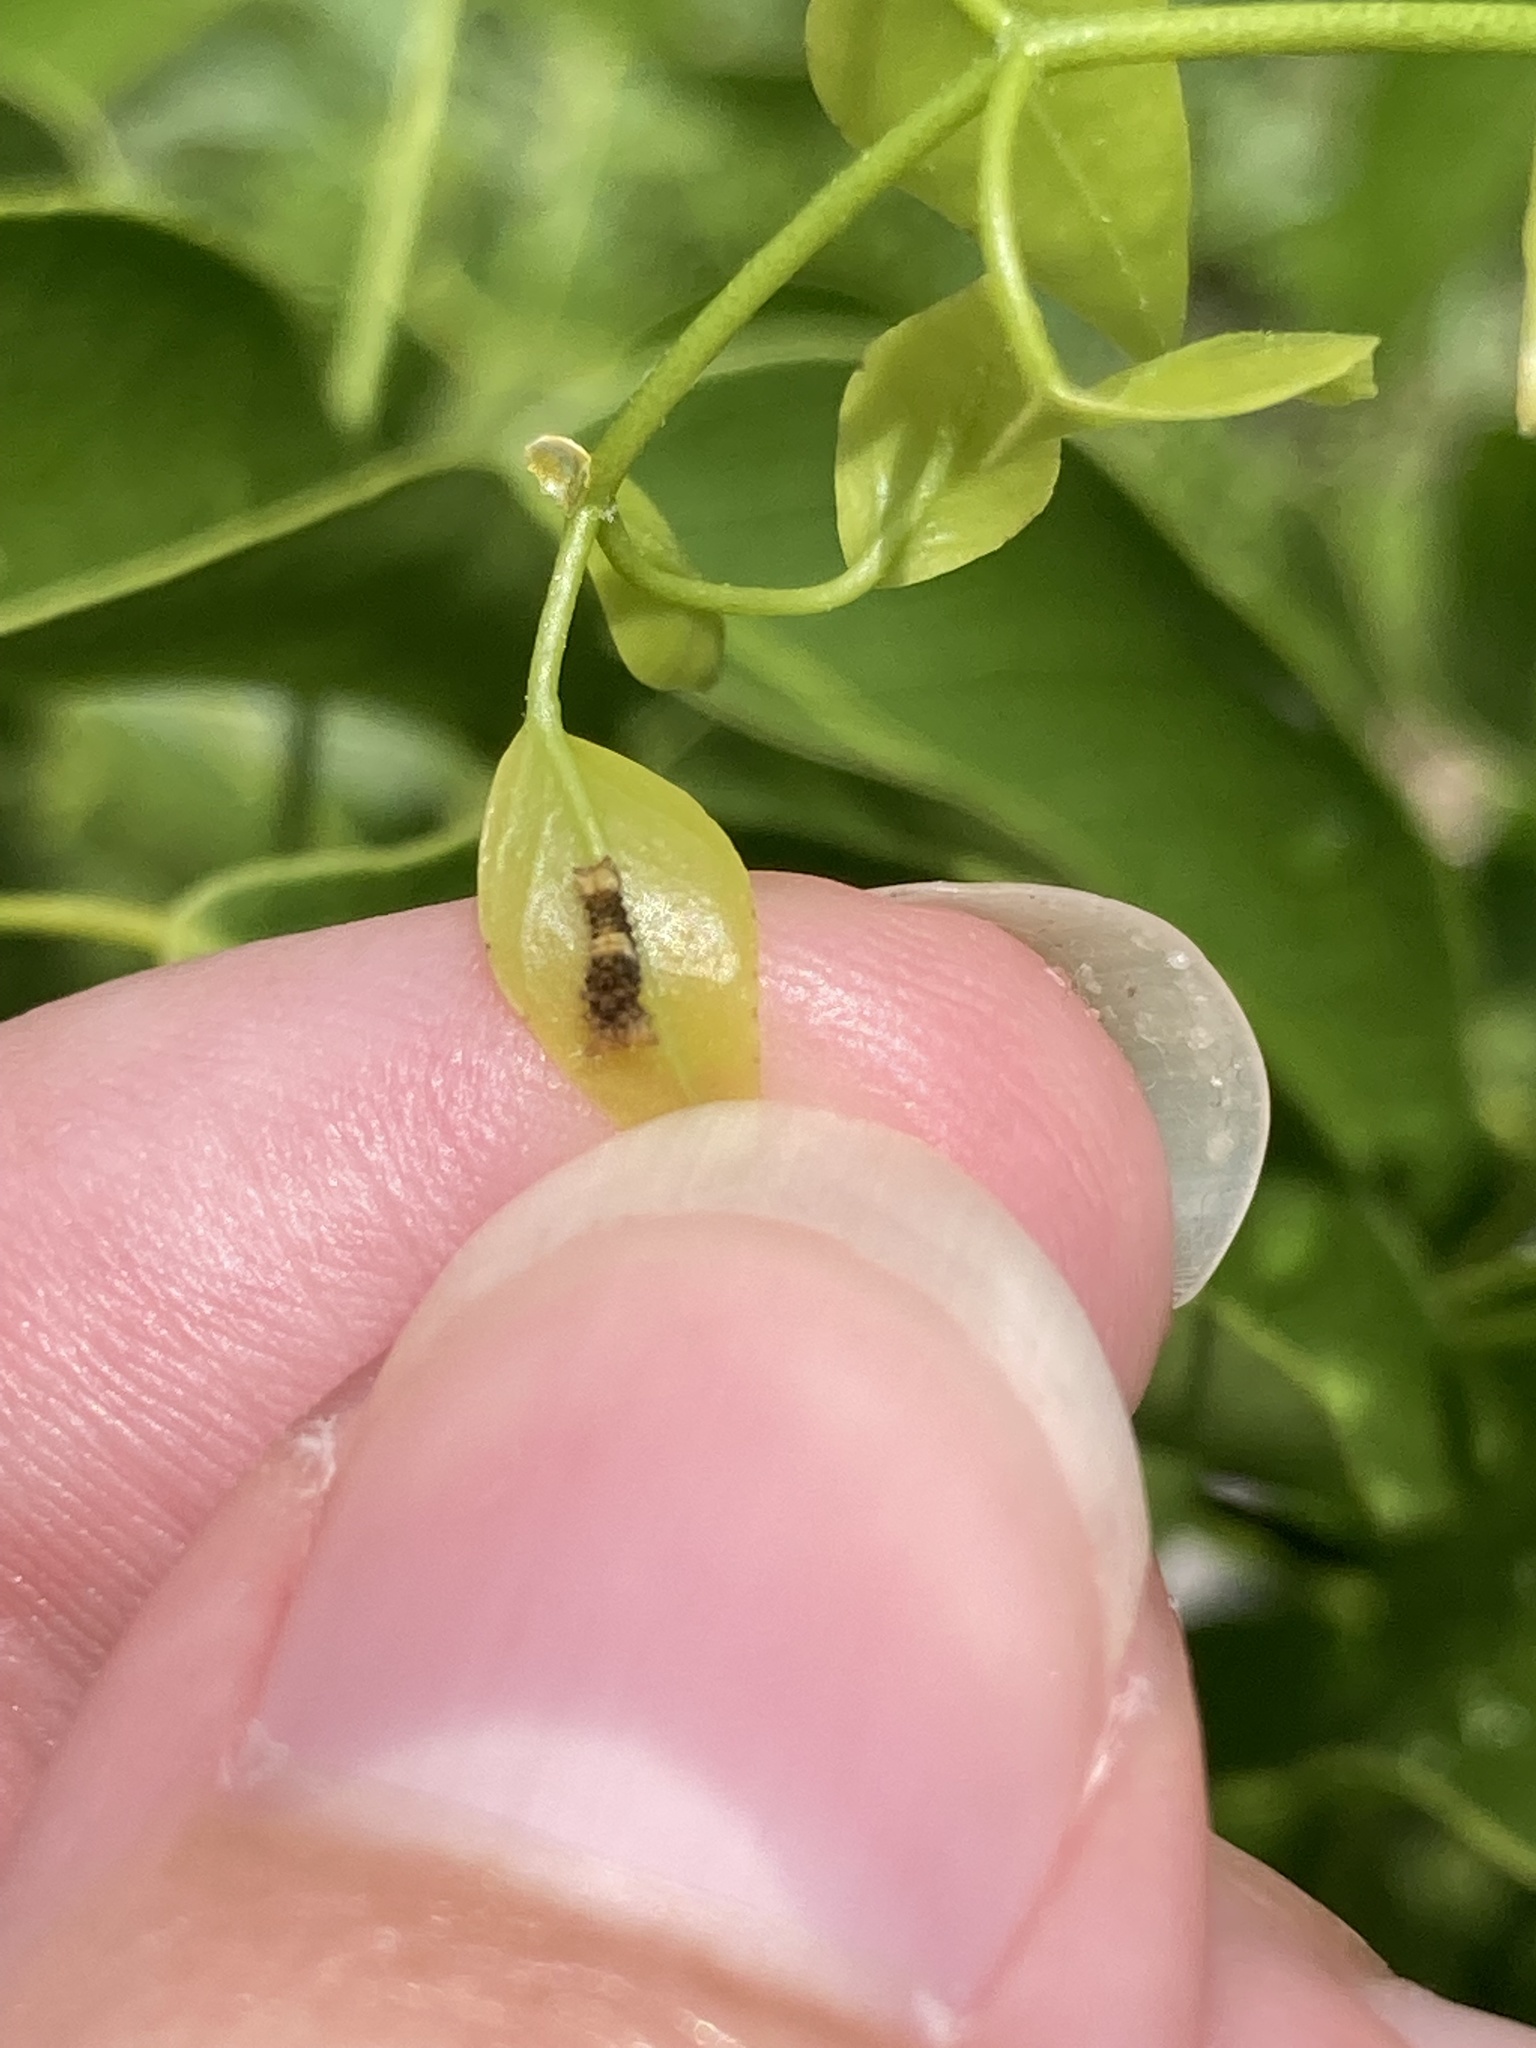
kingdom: Animalia
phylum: Arthropoda
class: Insecta
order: Lepidoptera
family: Papilionidae
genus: Papilio
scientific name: Papilio cresphontes
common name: Giant swallowtail
